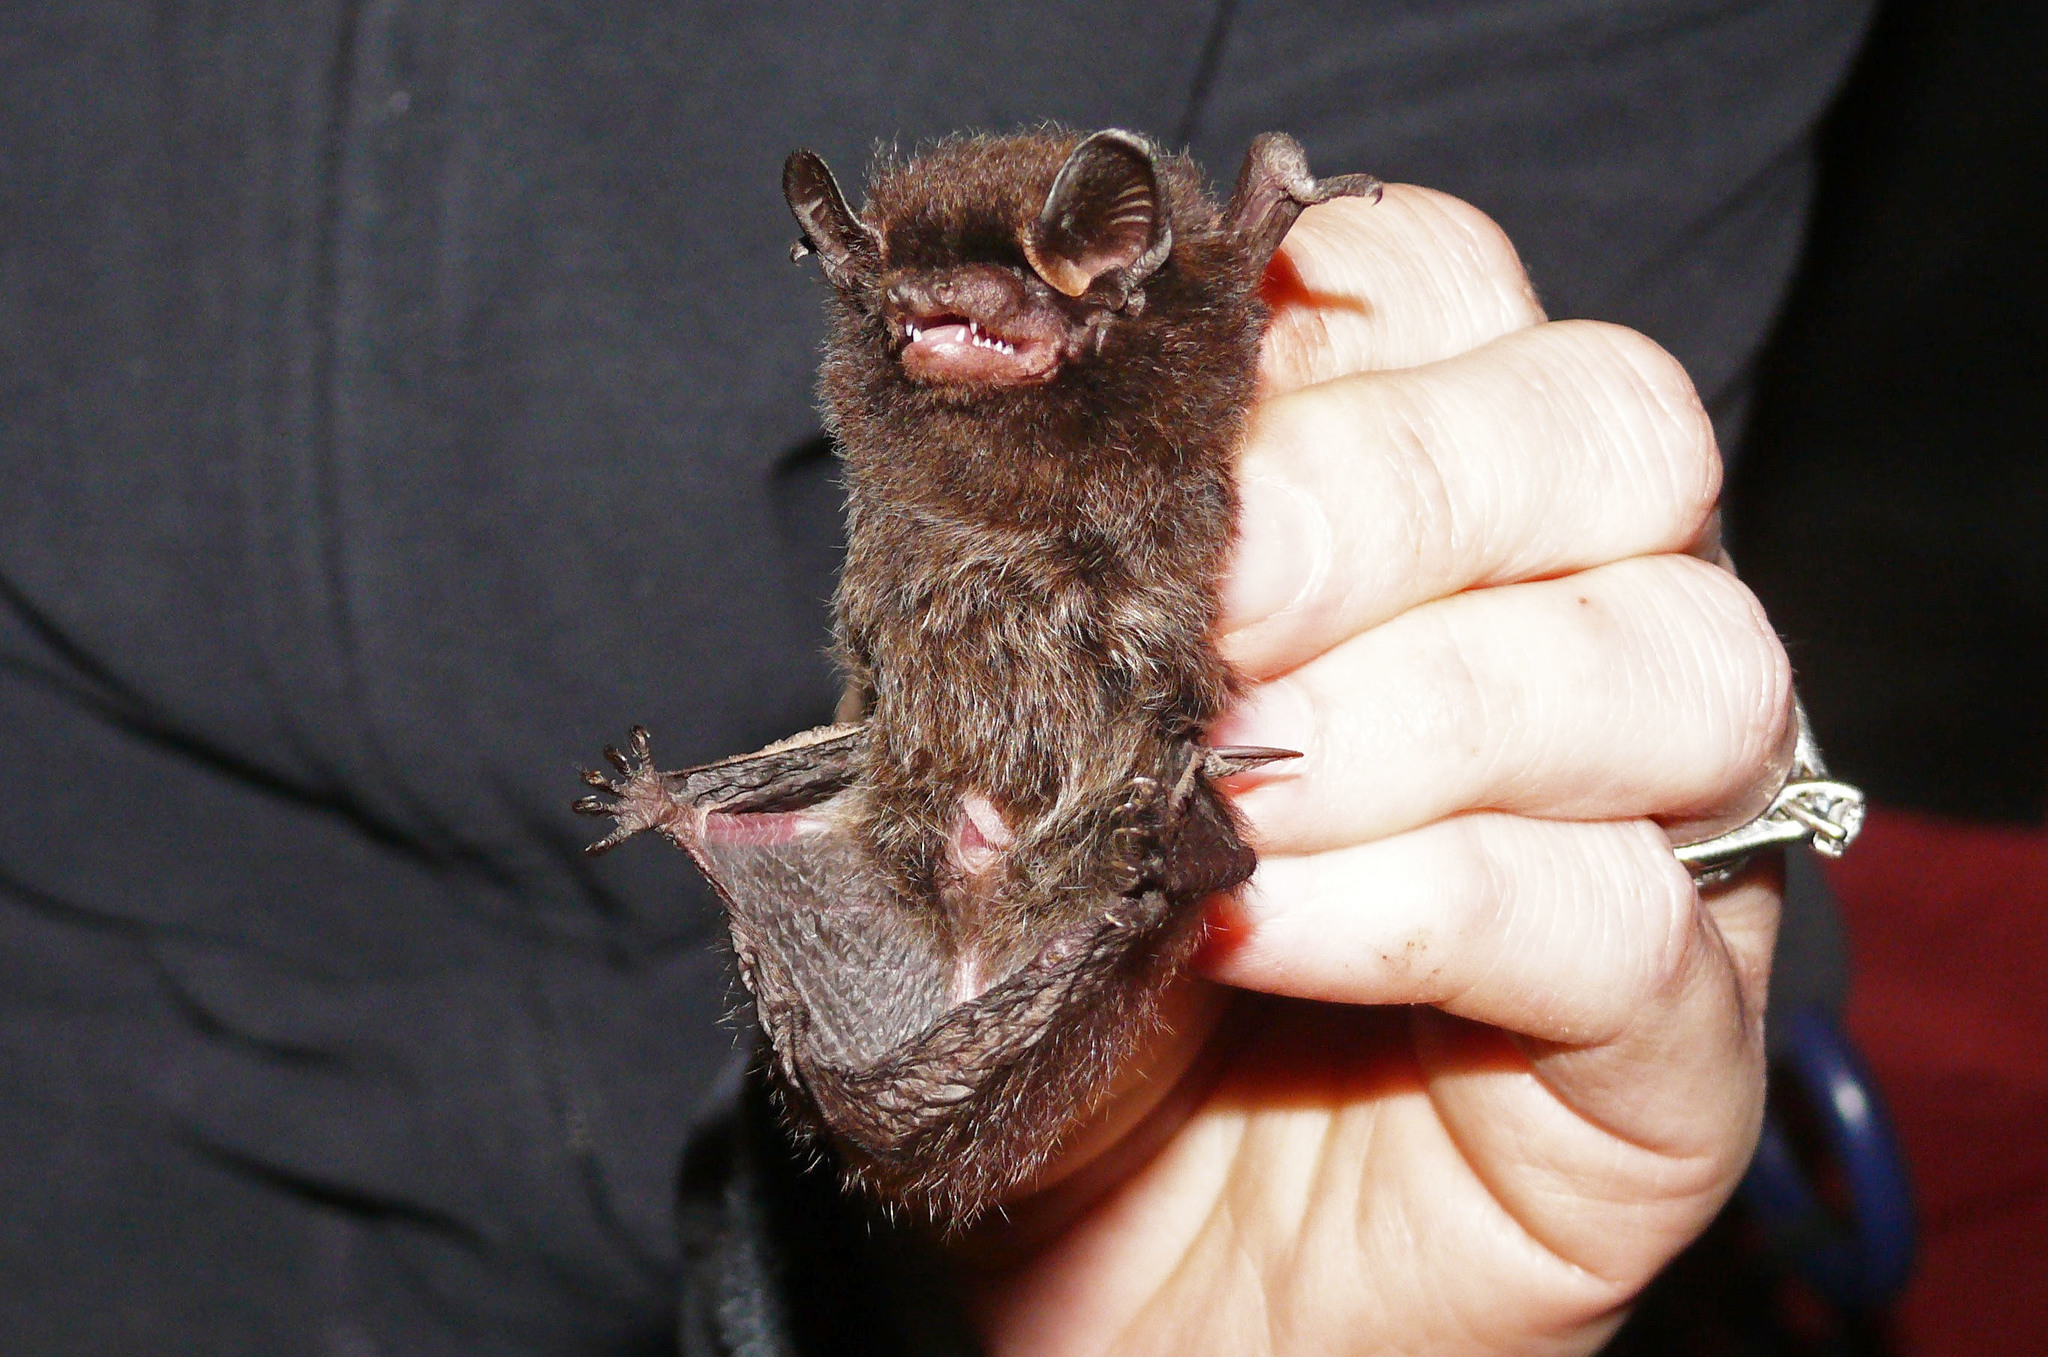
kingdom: Animalia
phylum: Chordata
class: Mammalia
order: Chiroptera
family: Vespertilionidae
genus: Lasionycteris
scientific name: Lasionycteris noctivagans
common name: Silver-haired bat
